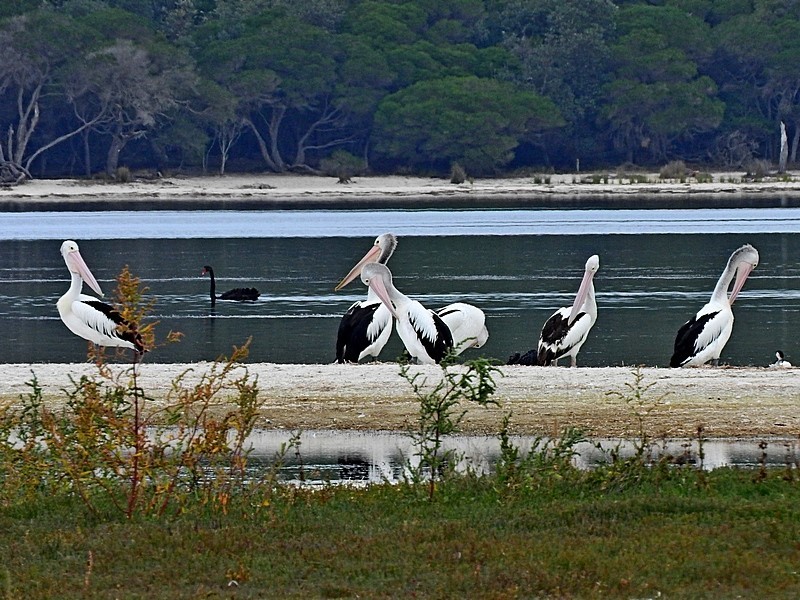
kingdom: Animalia
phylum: Chordata
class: Aves
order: Pelecaniformes
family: Pelecanidae
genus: Pelecanus
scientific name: Pelecanus conspicillatus
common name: Australian pelican
